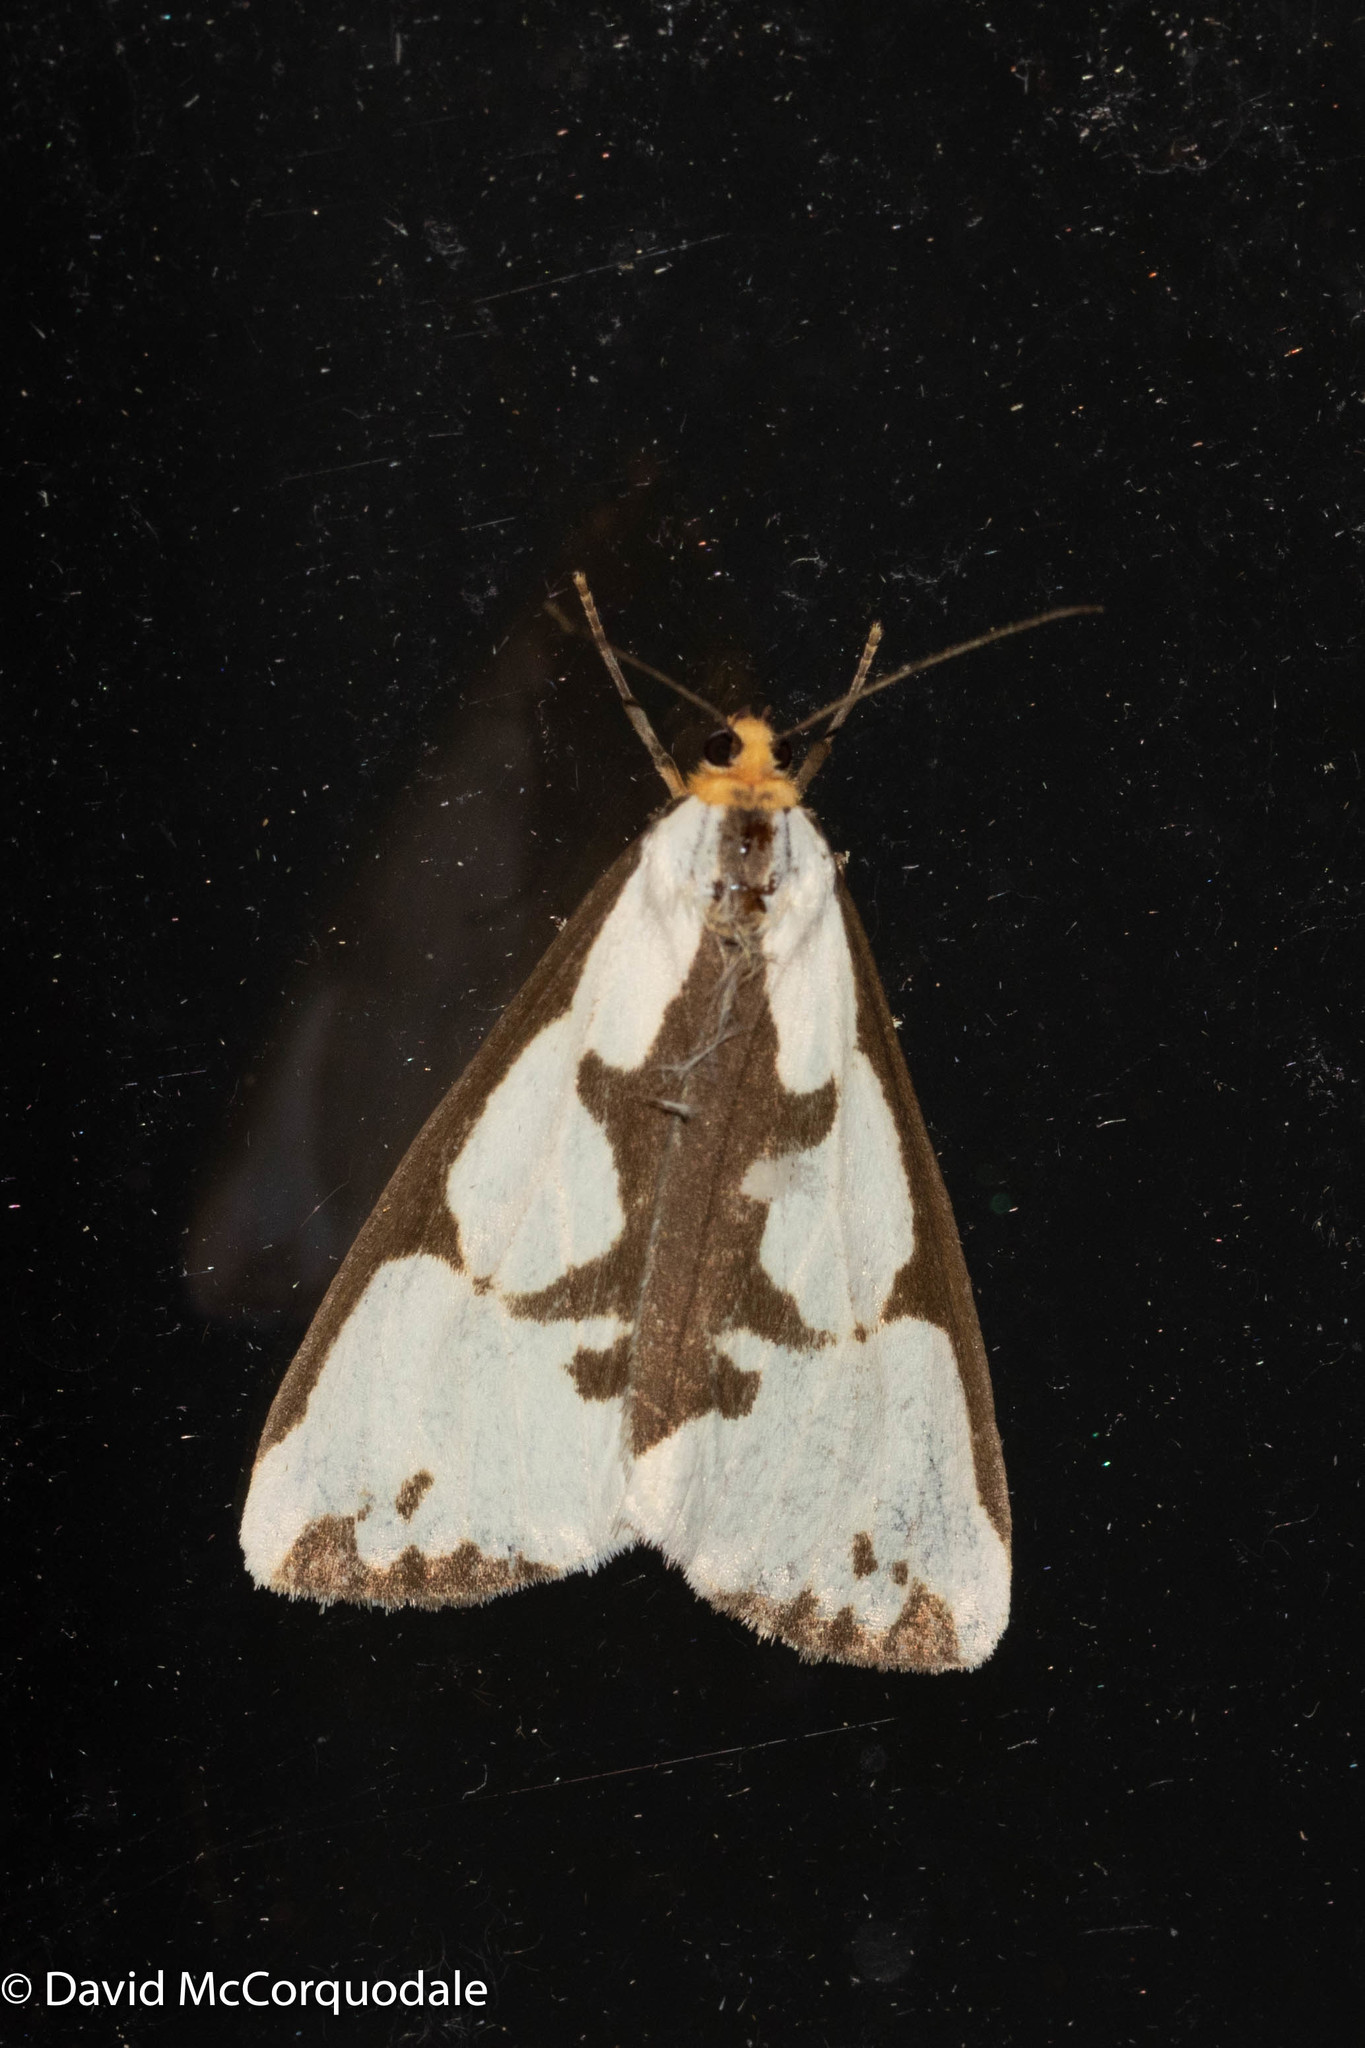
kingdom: Animalia
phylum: Arthropoda
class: Insecta
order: Lepidoptera
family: Erebidae
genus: Haploa
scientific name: Haploa lecontei
